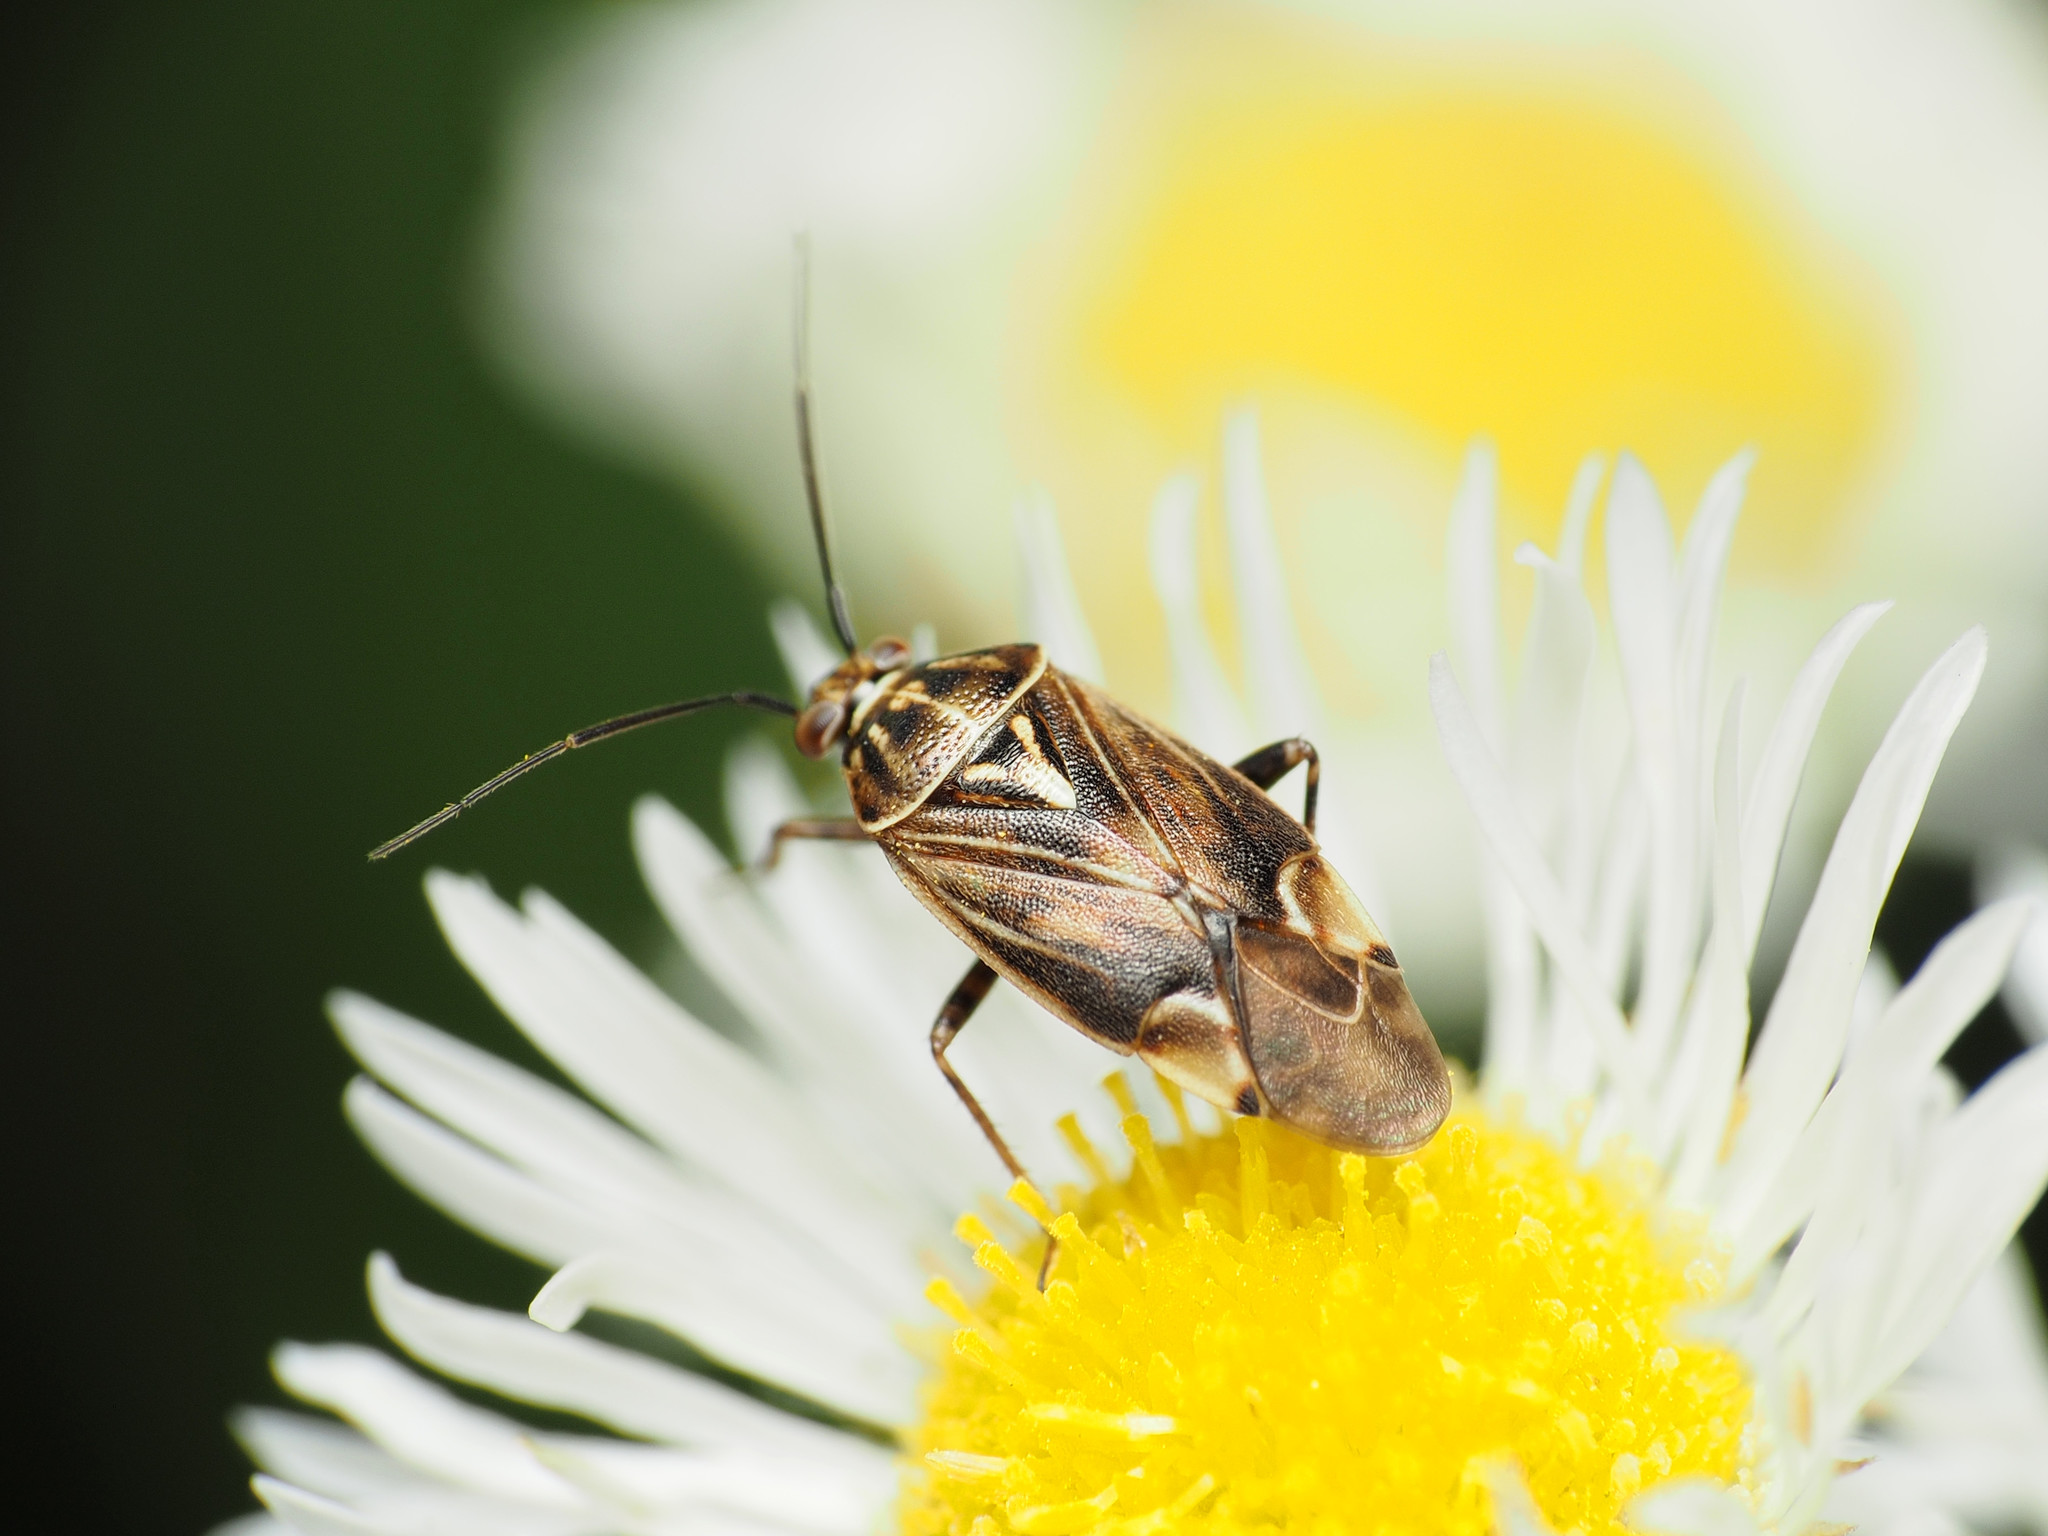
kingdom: Animalia
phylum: Arthropoda
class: Insecta
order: Hemiptera
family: Miridae
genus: Lygus
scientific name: Lygus lineolaris
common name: North american tarnished plant bug
